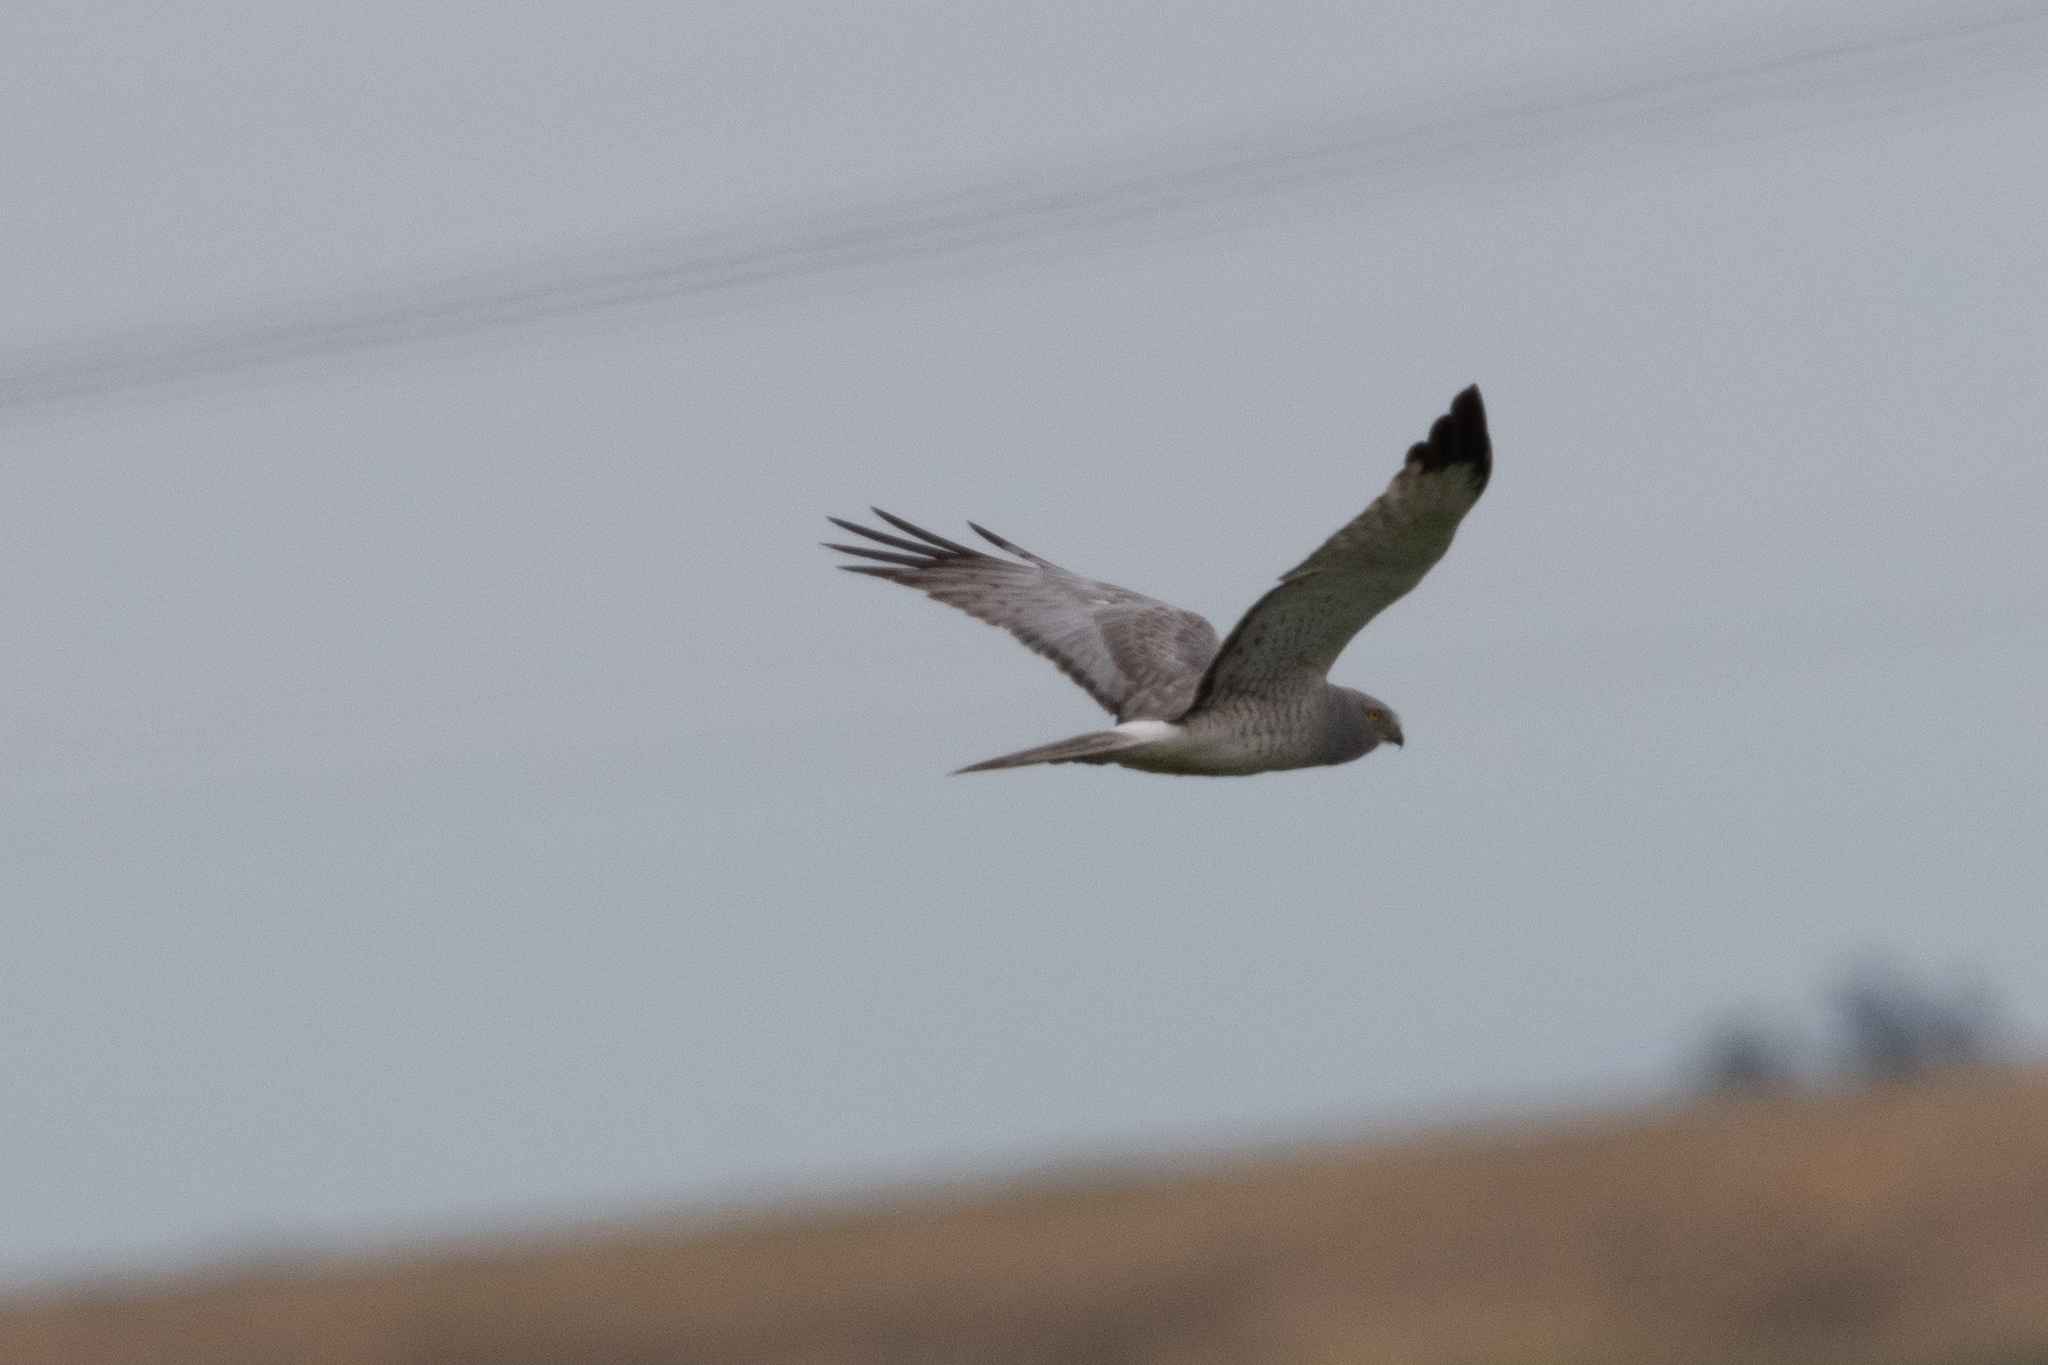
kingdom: Animalia
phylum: Chordata
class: Aves
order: Accipitriformes
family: Accipitridae
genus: Circus
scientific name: Circus cyaneus
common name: Hen harrier
